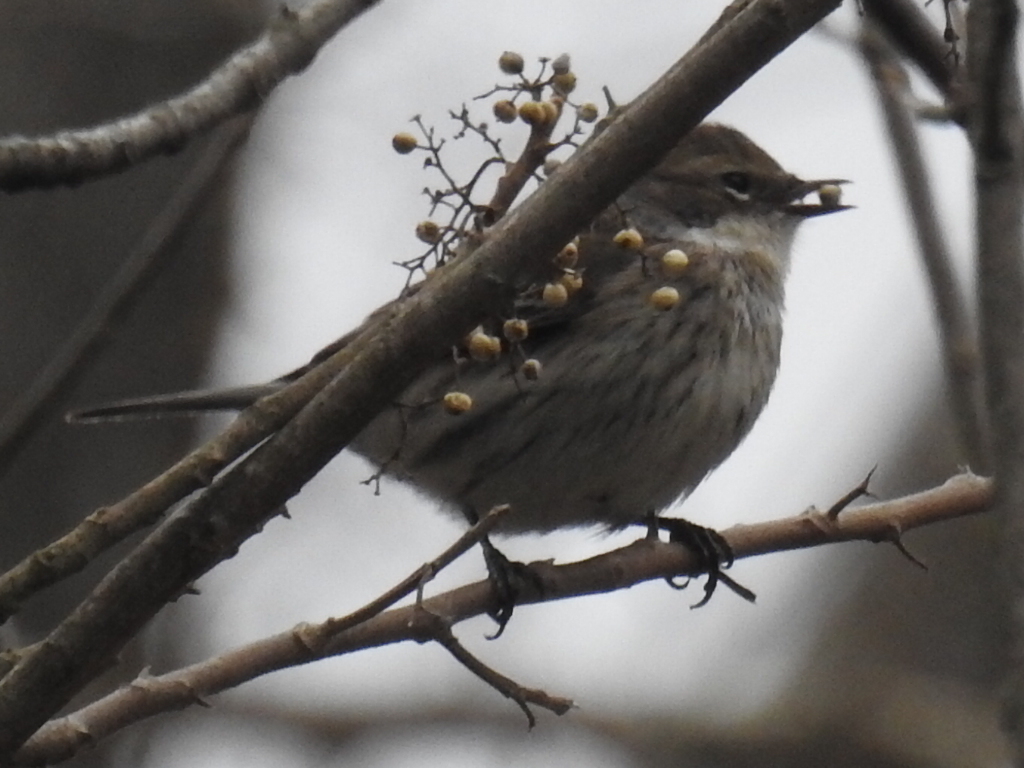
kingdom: Animalia
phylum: Chordata
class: Aves
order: Passeriformes
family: Parulidae
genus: Setophaga
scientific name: Setophaga coronata
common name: Myrtle warbler
